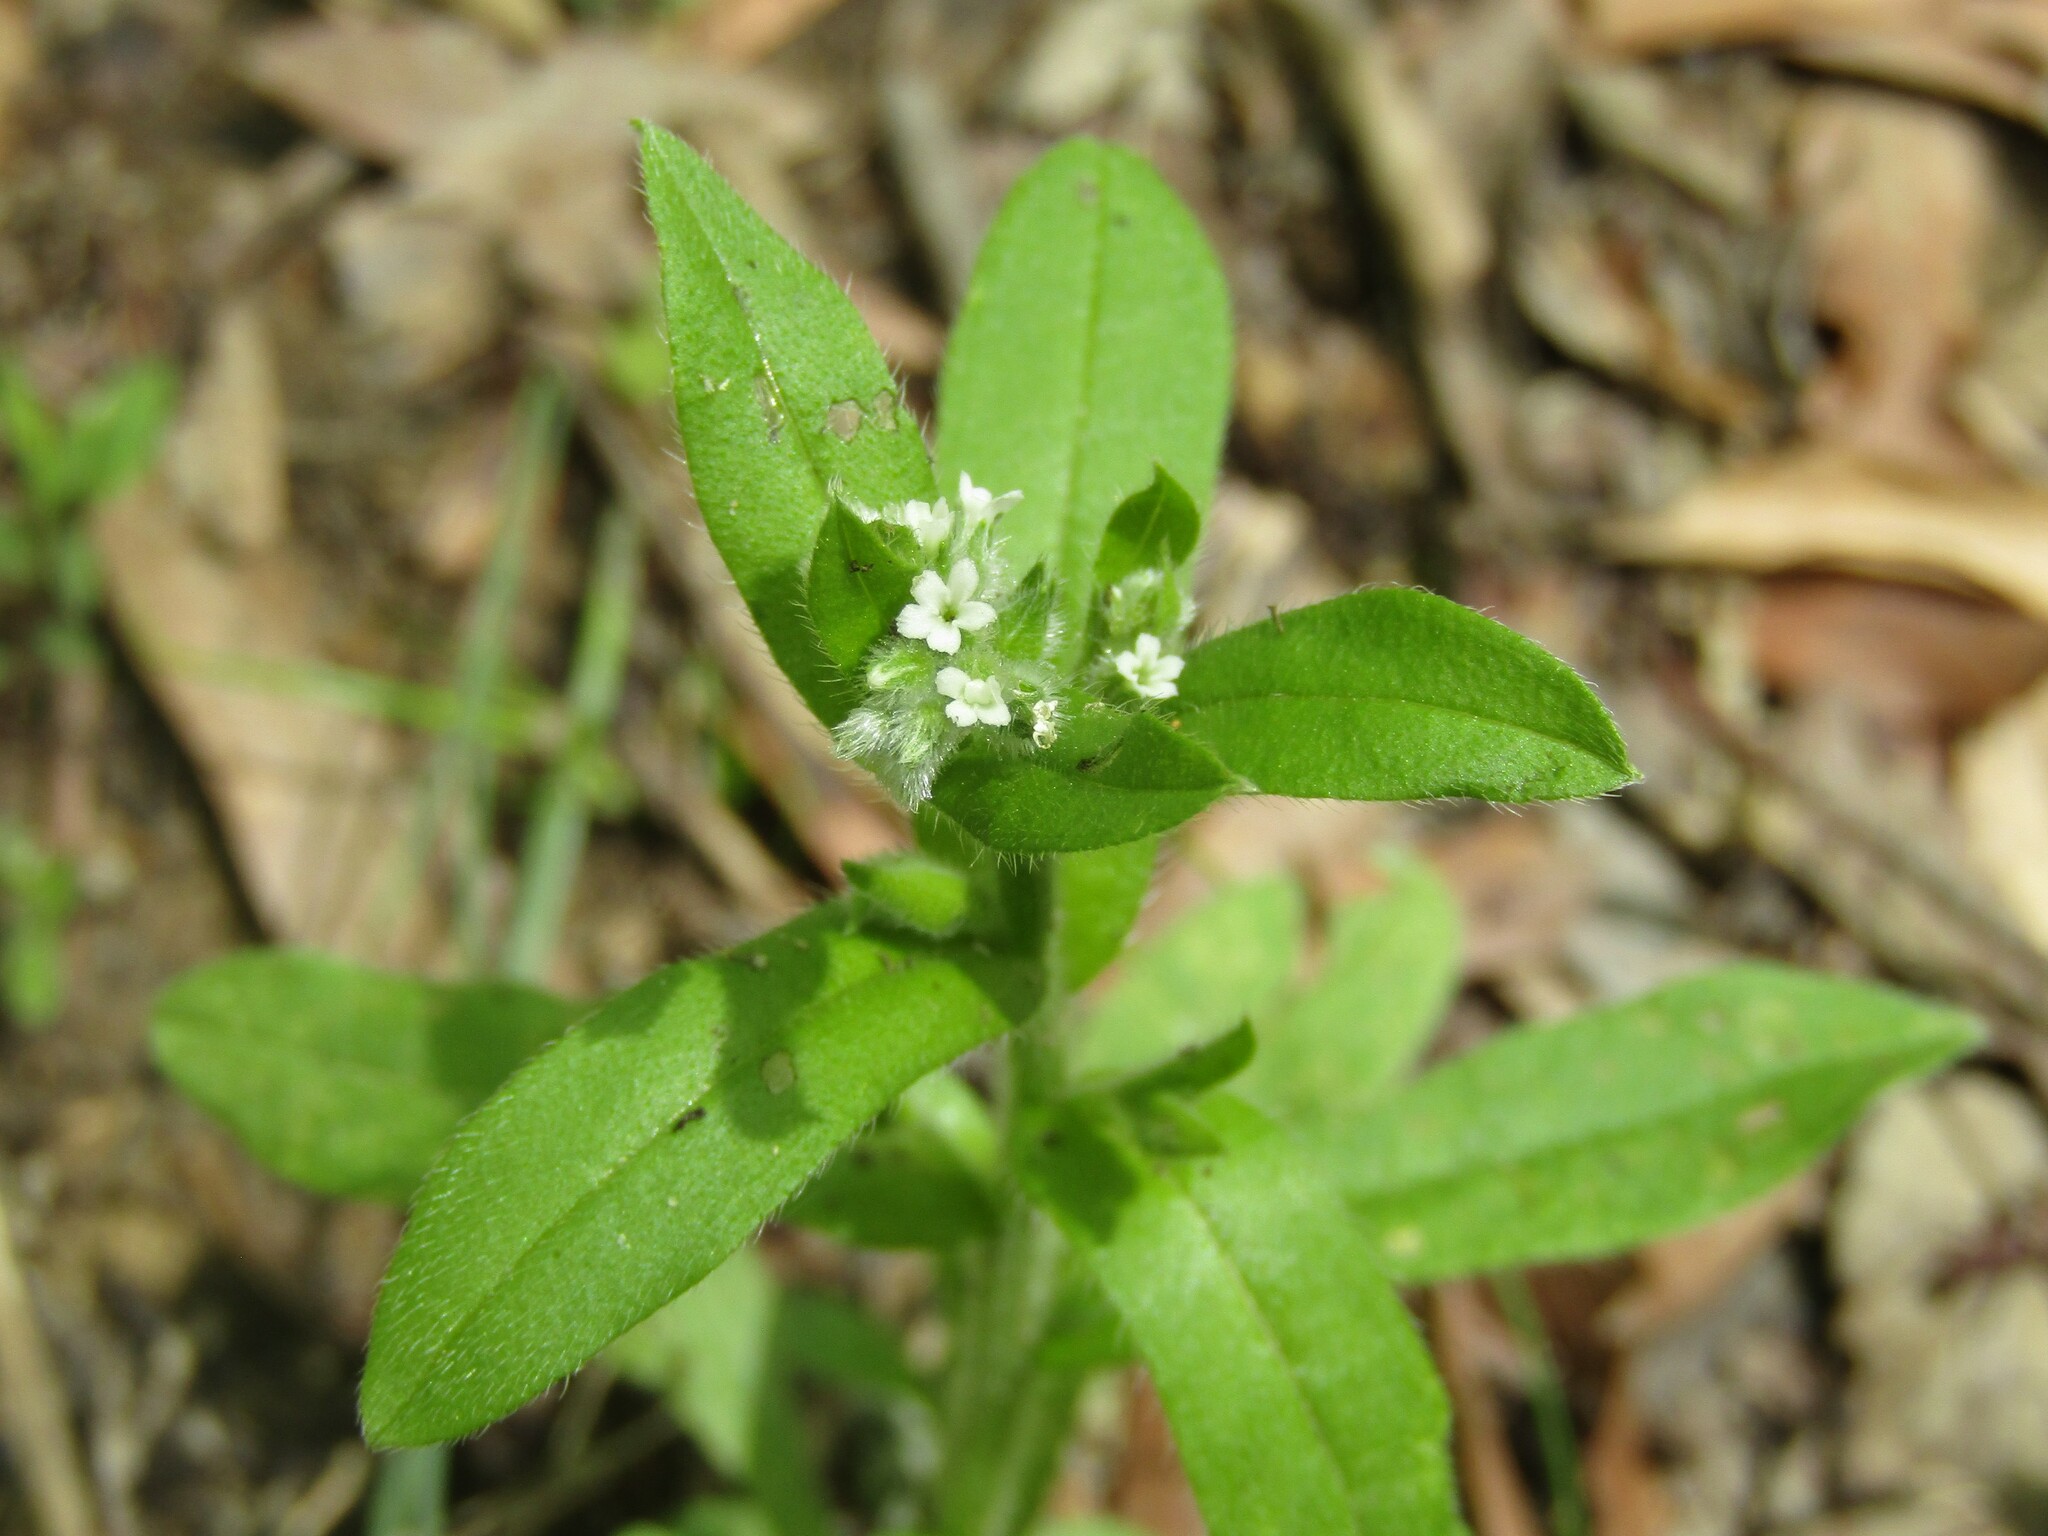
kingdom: Plantae
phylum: Tracheophyta
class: Magnoliopsida
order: Boraginales
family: Boraginaceae
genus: Myosotis
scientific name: Myosotis macrosperma
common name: Large-seed forget-me-not
